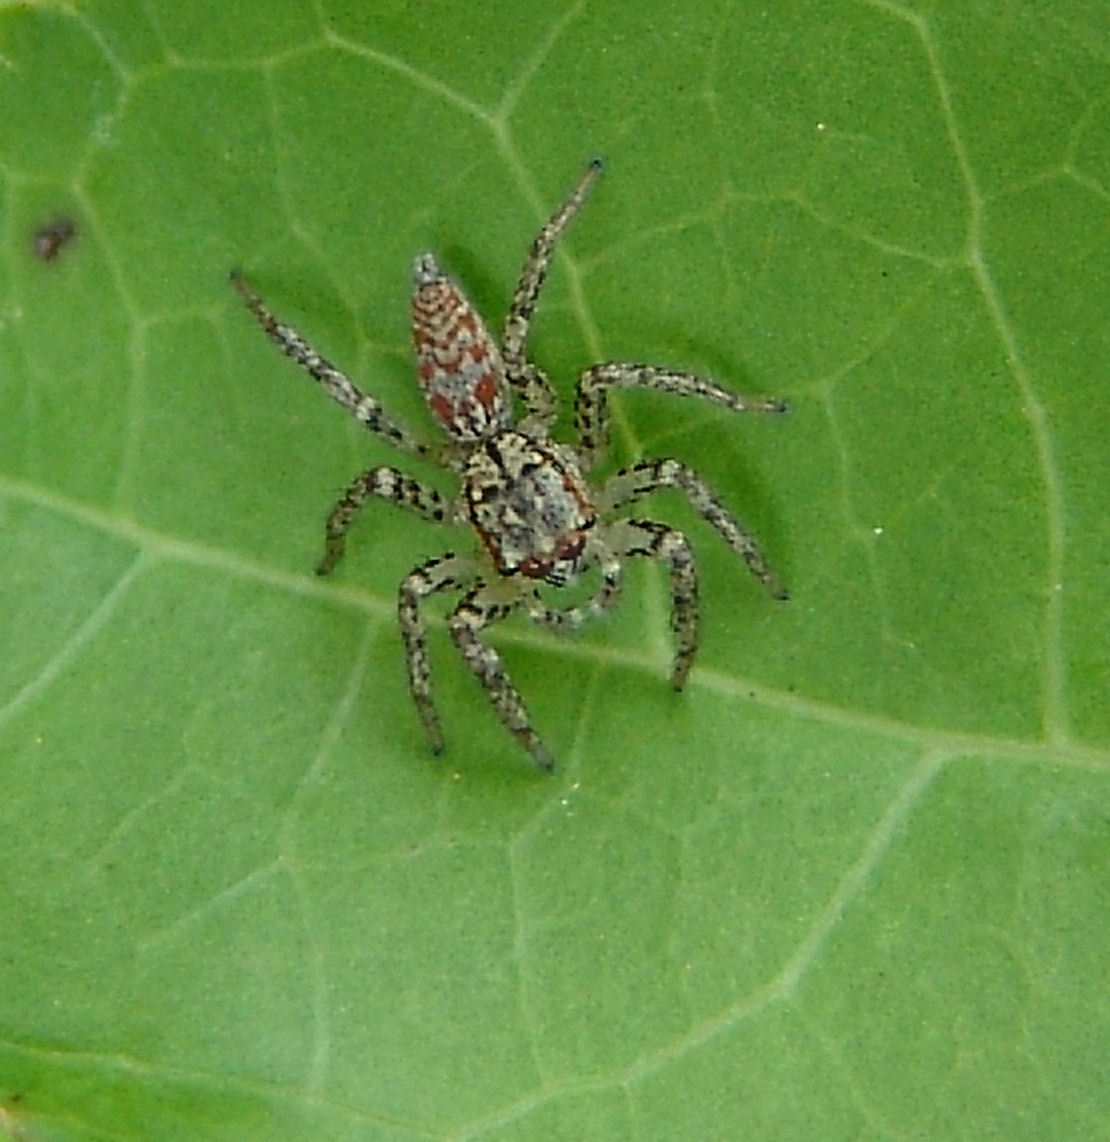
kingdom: Animalia
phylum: Arthropoda
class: Arachnida
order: Araneae
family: Salticidae
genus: Maevia
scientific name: Maevia inclemens
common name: Dimorphic jumper
